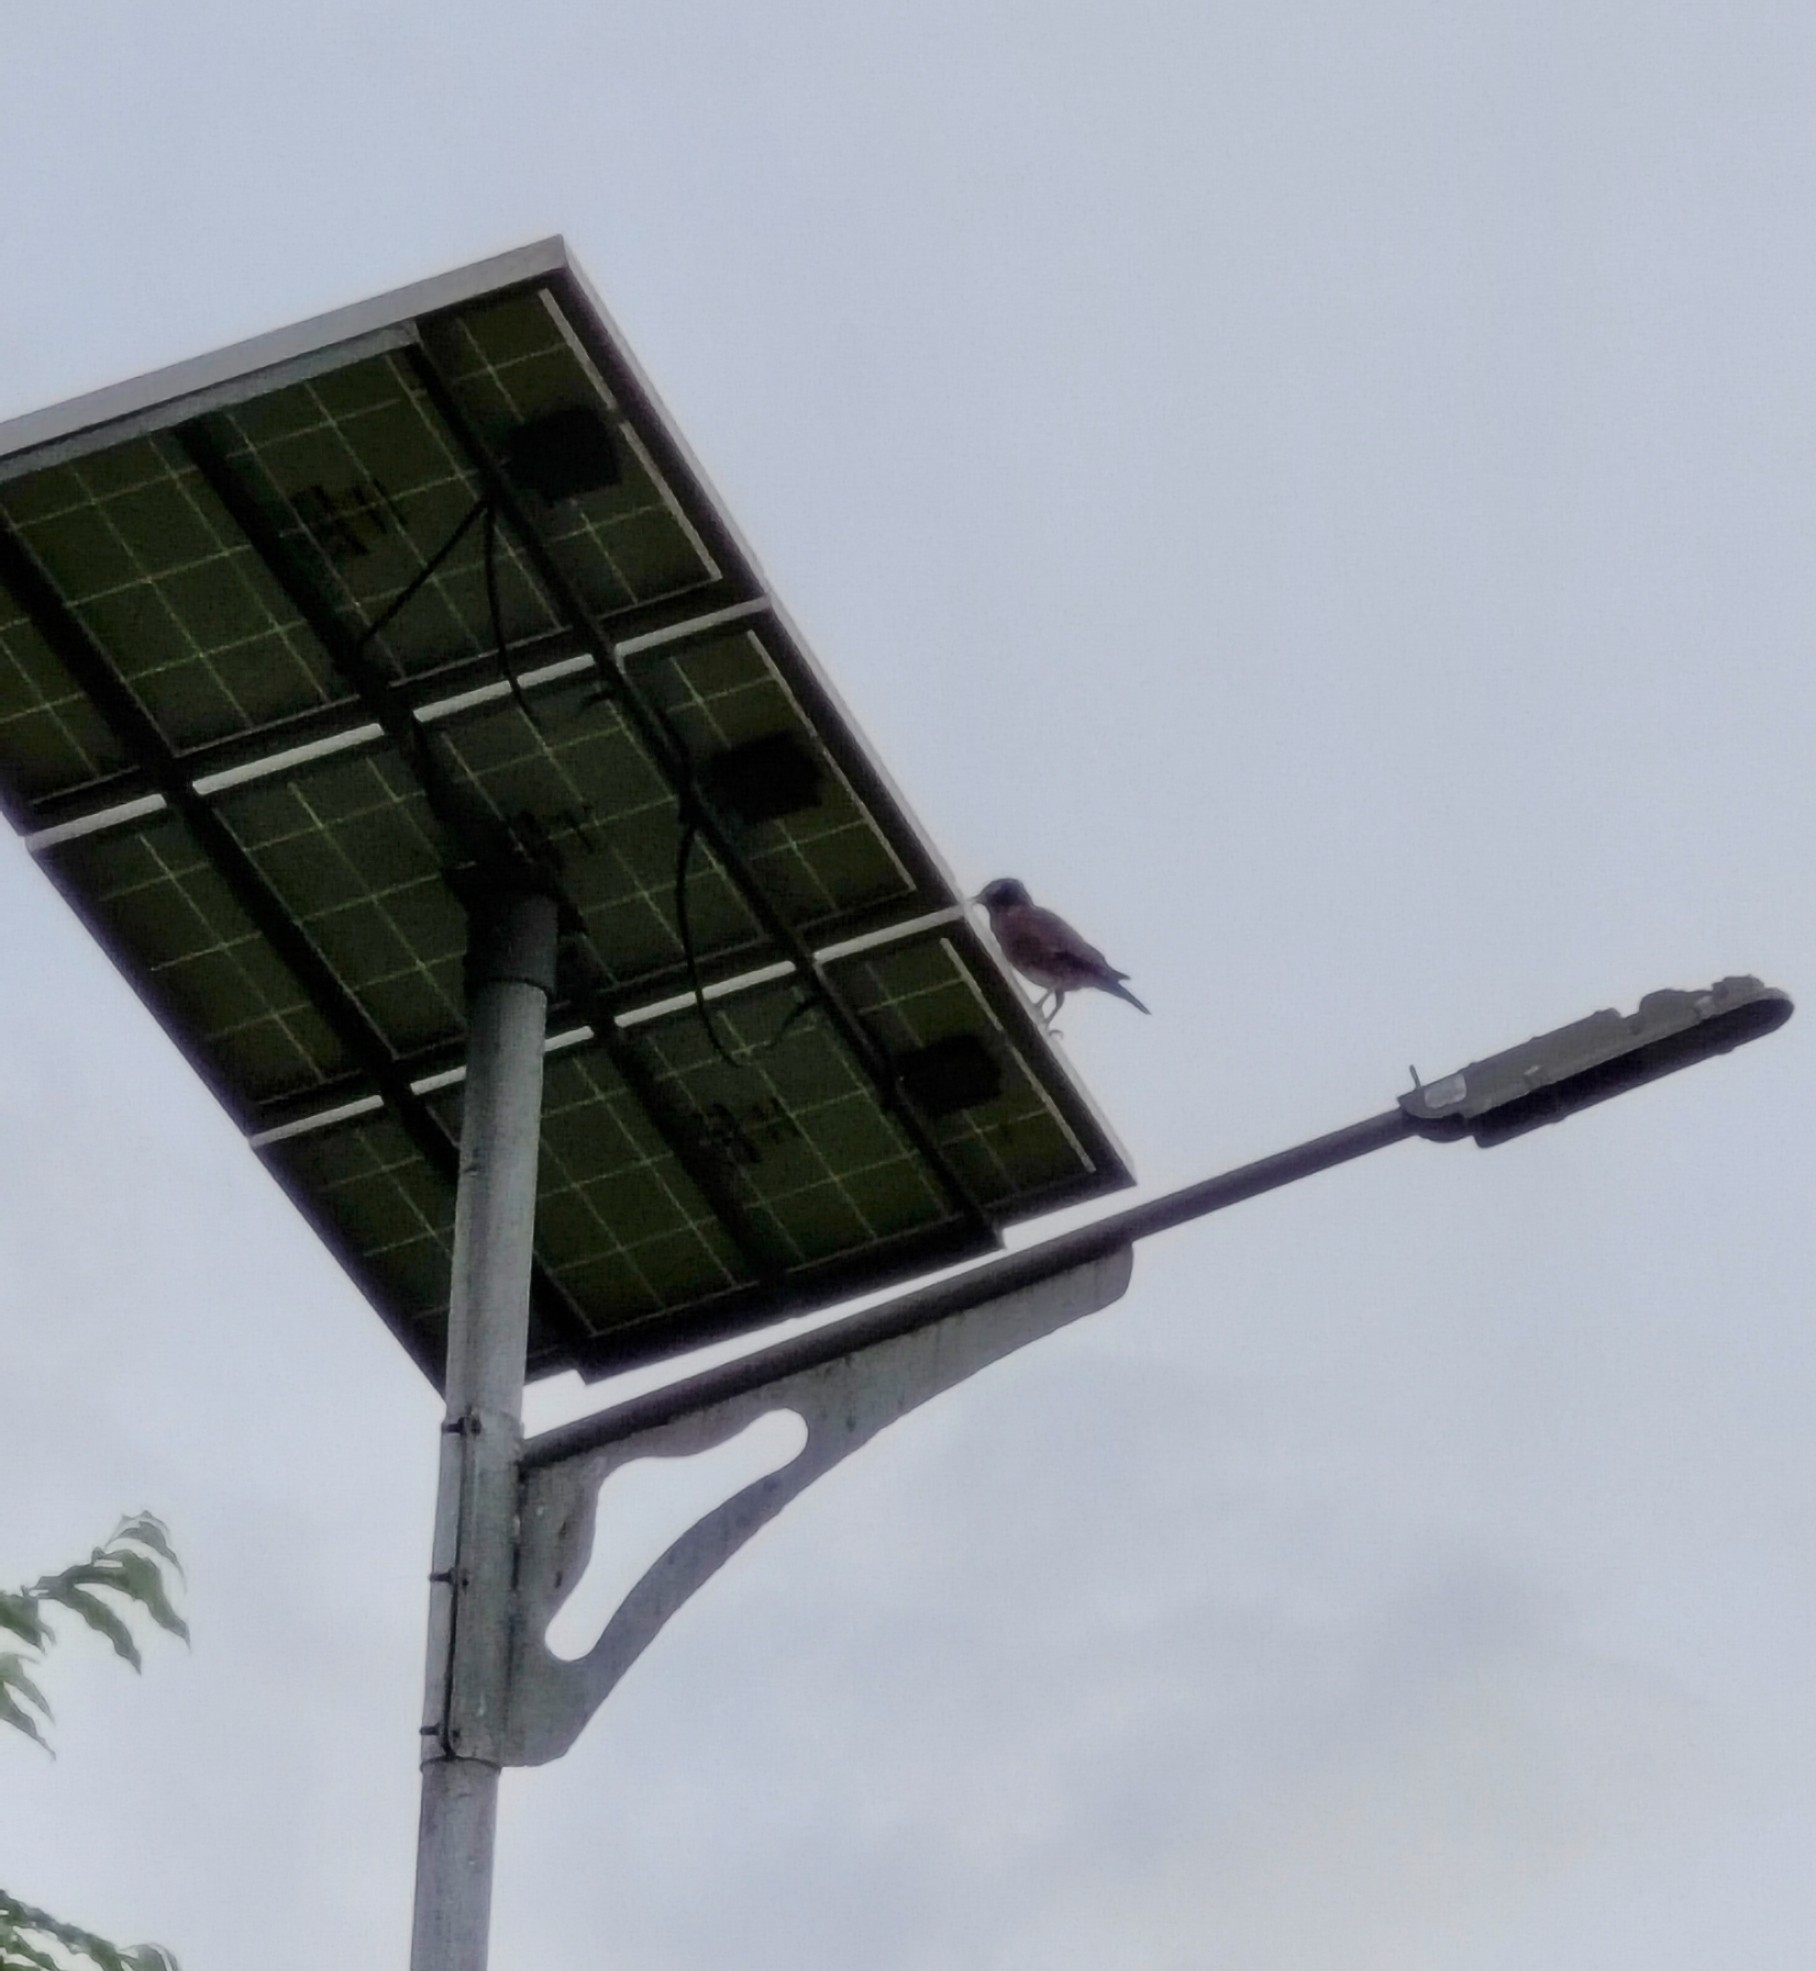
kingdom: Animalia
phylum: Chordata
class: Aves
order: Passeriformes
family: Sturnidae
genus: Acridotheres
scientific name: Acridotheres tristis
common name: Common myna
